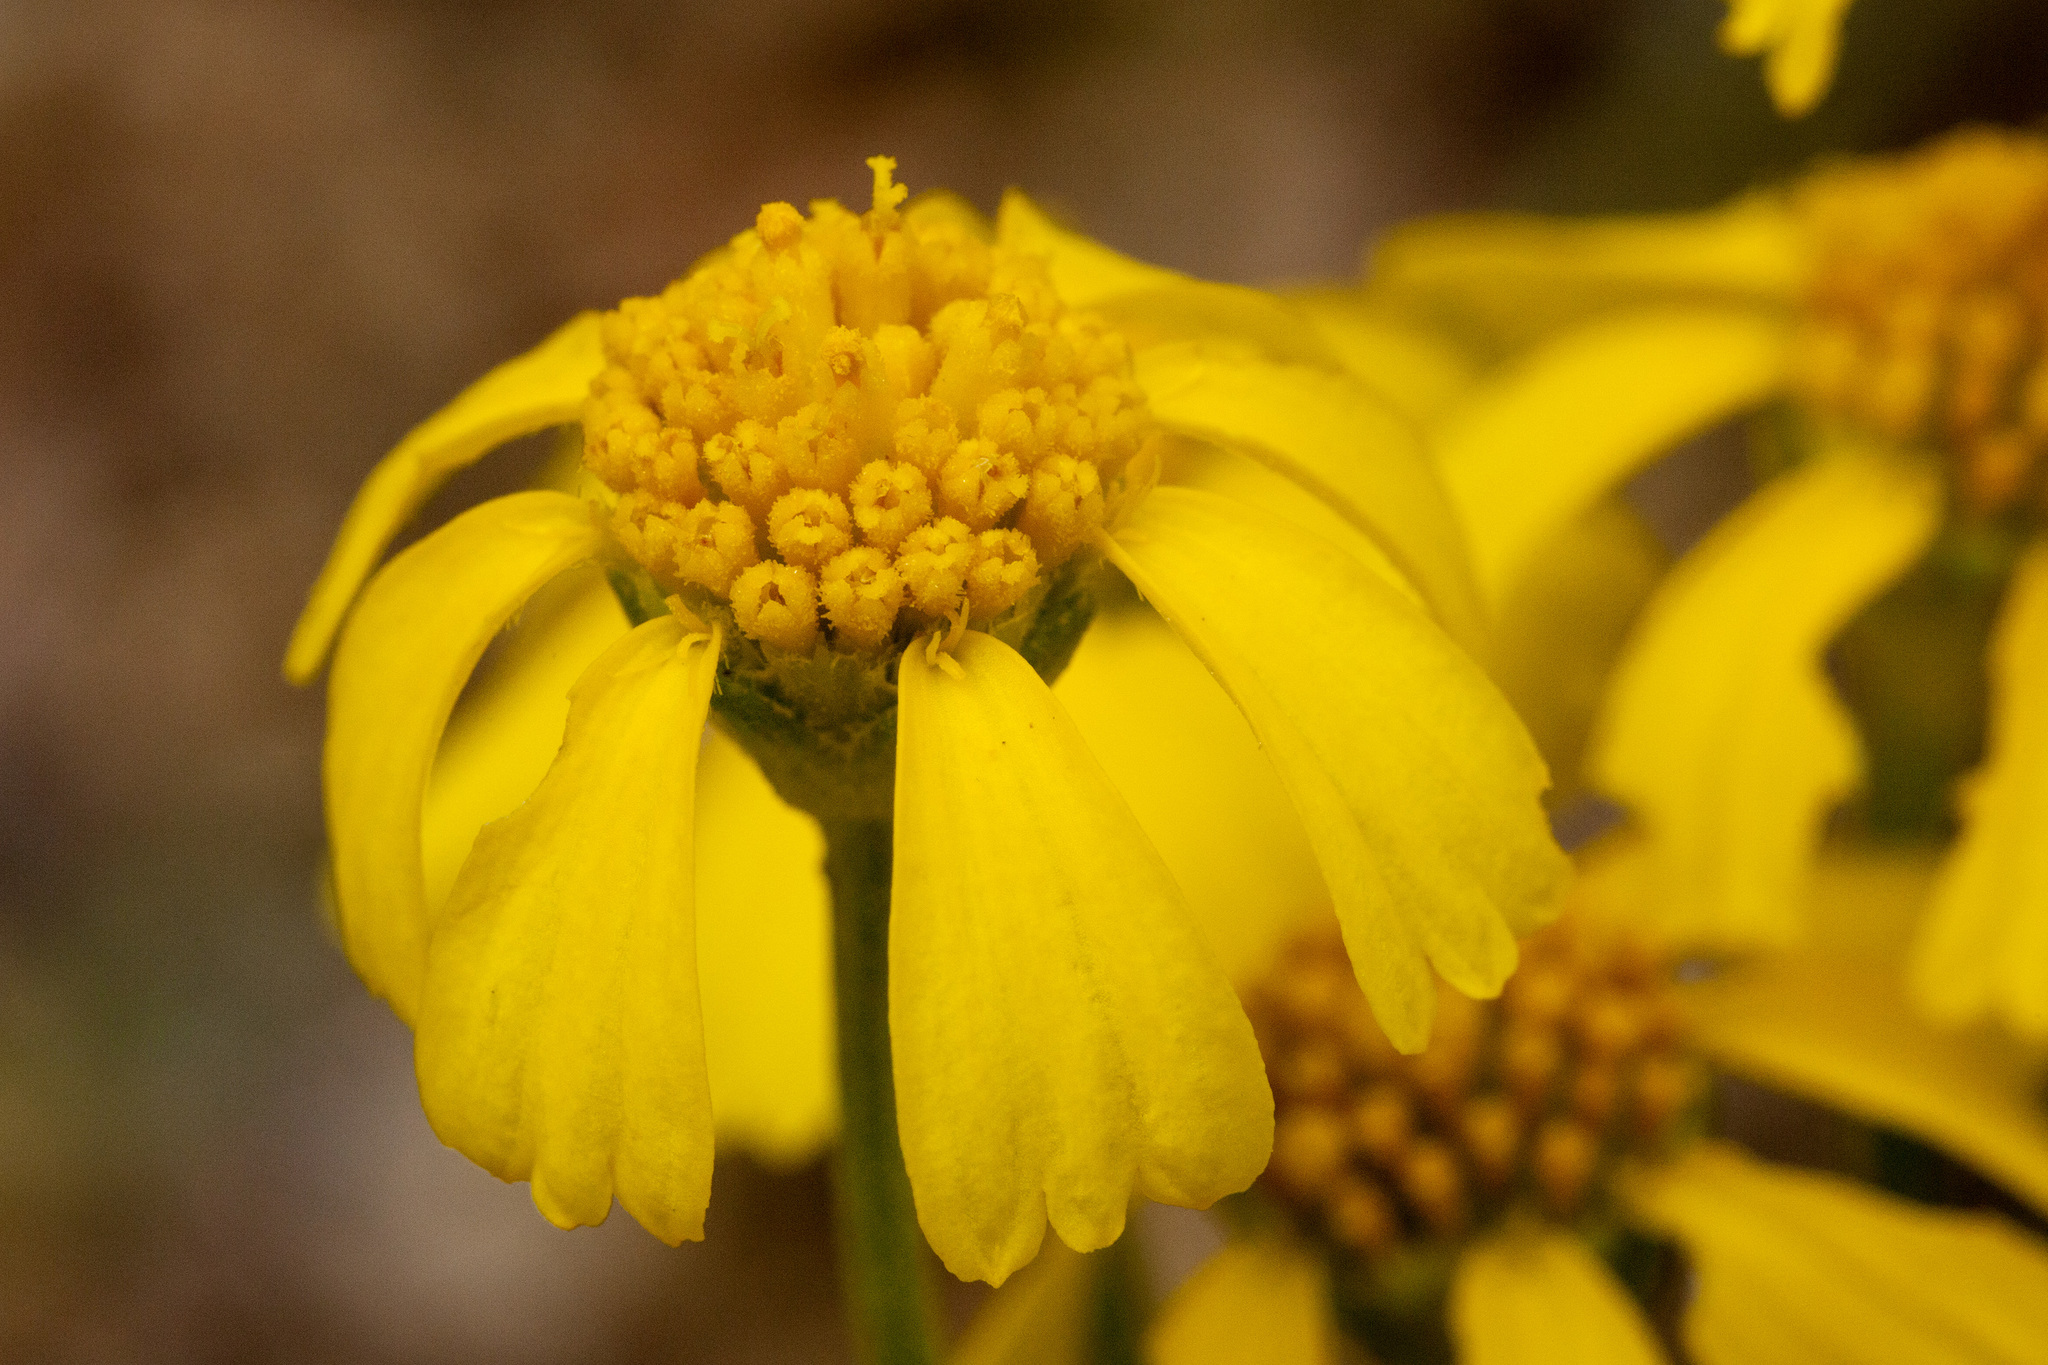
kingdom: Plantae
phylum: Tracheophyta
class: Magnoliopsida
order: Asterales
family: Asteraceae
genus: Hymenoxys
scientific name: Hymenoxys richardsonii
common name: Pingue rubberweed
